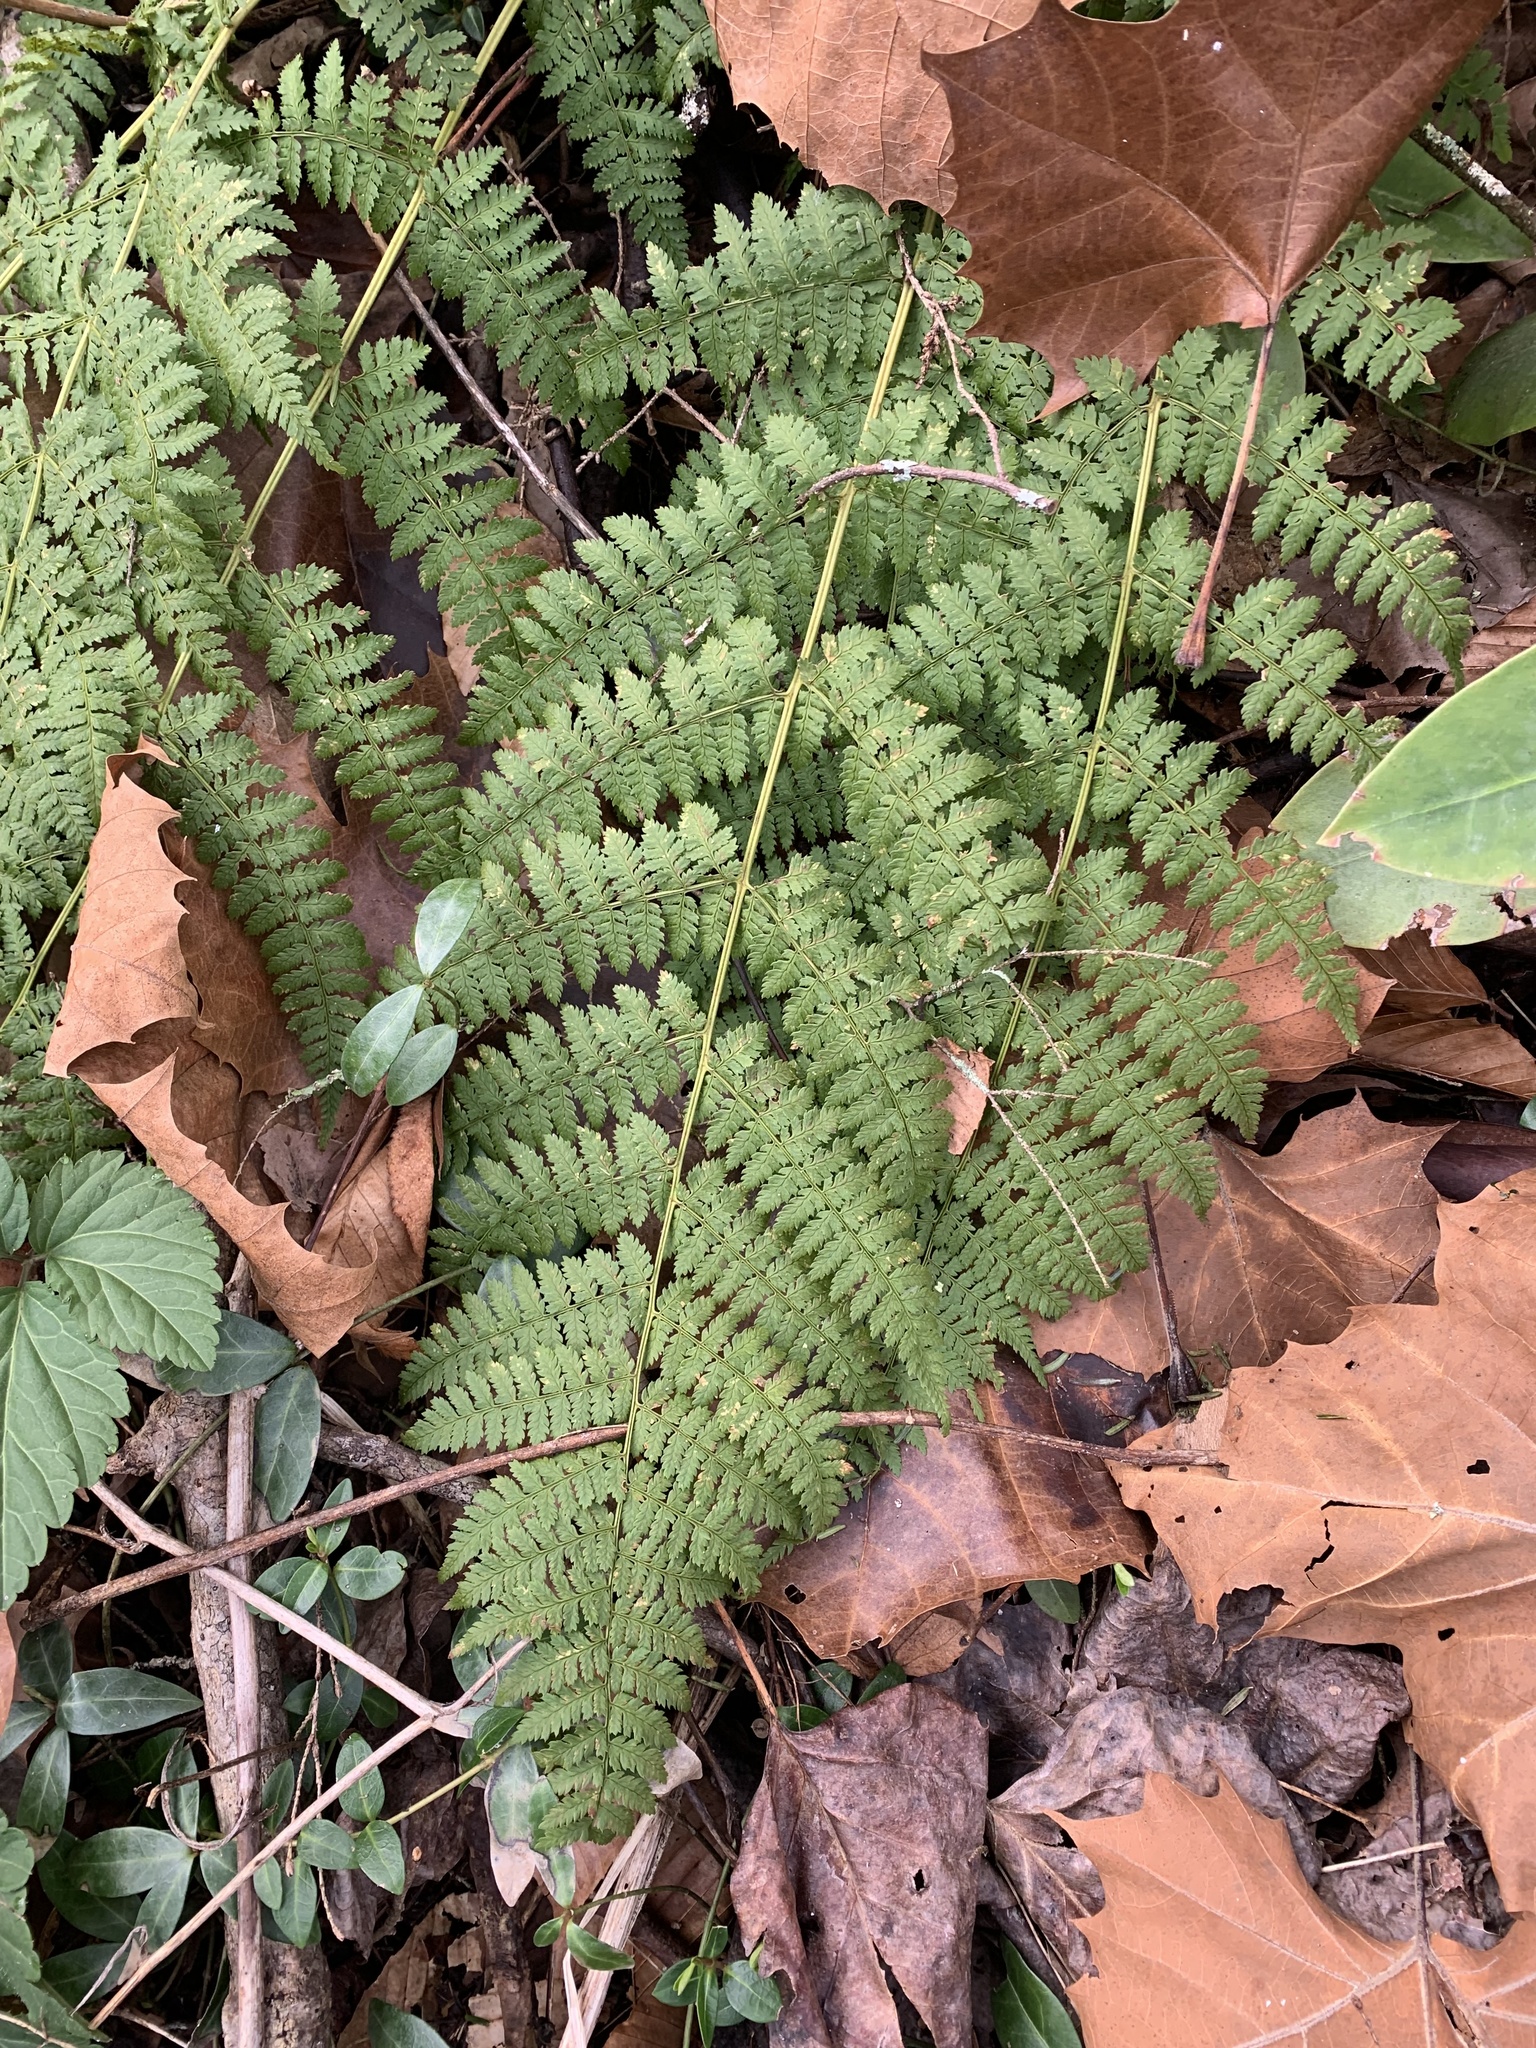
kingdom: Plantae
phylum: Tracheophyta
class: Polypodiopsida
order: Polypodiales
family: Dryopteridaceae
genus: Dryopteris
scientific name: Dryopteris intermedia
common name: Evergreen wood fern
